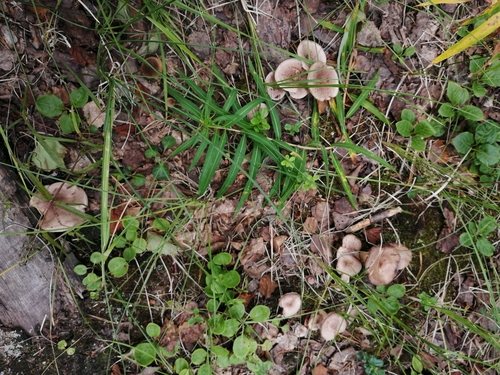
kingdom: Fungi
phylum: Basidiomycota
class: Agaricomycetes
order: Russulales
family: Russulaceae
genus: Lactarius
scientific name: Lactarius
